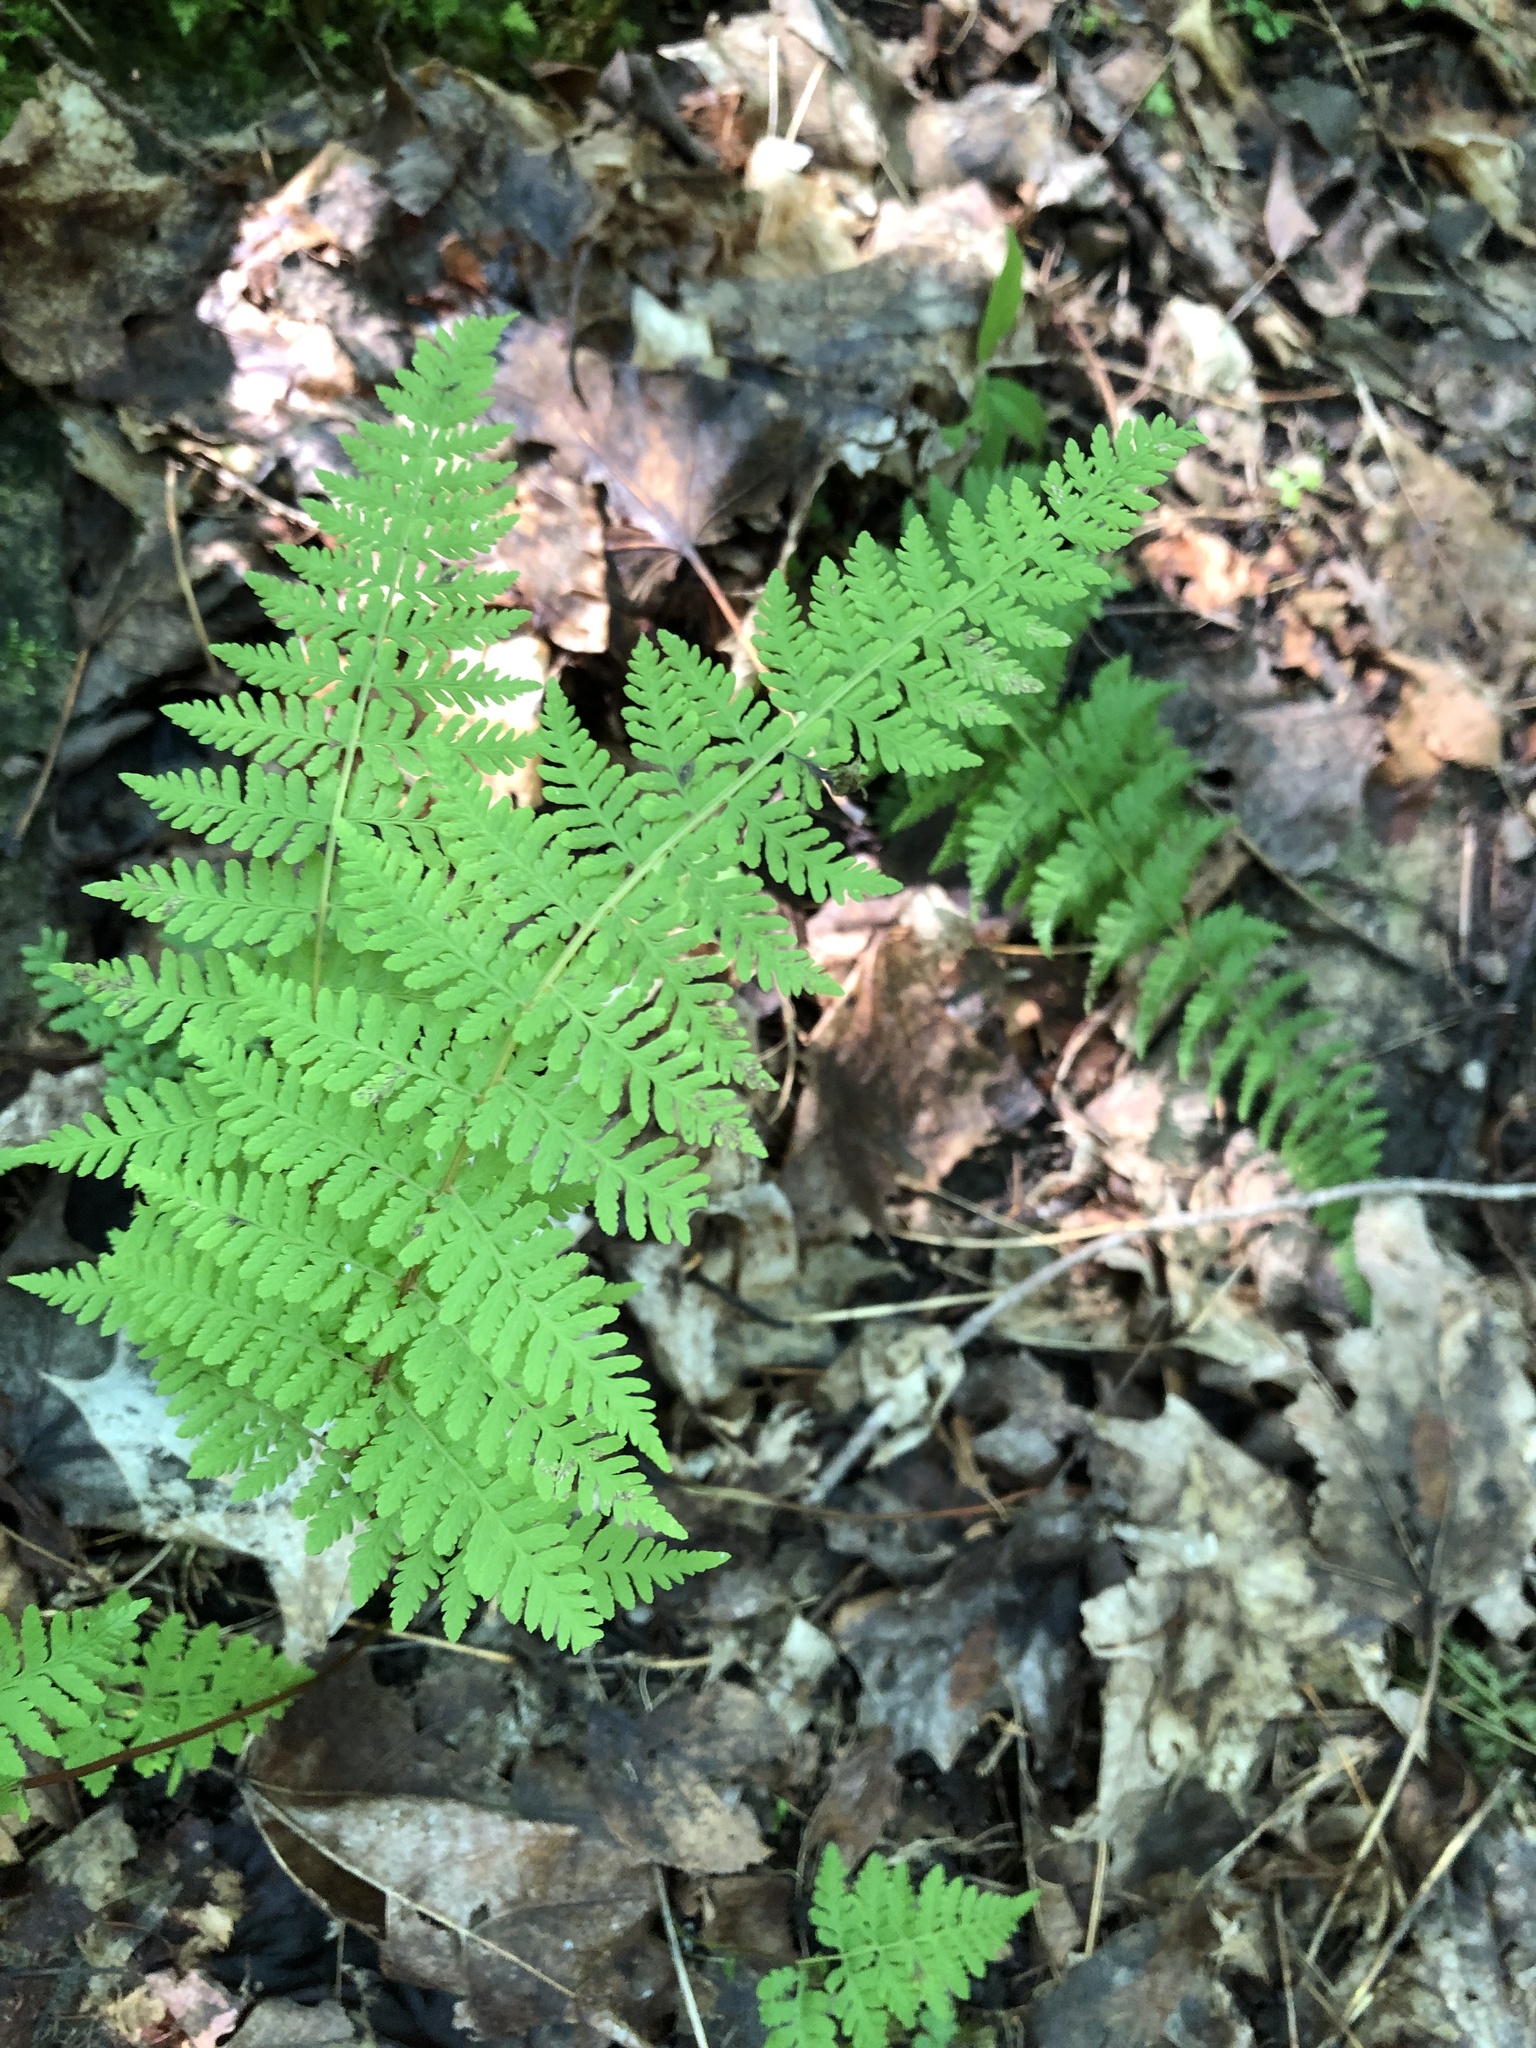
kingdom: Plantae
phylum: Tracheophyta
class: Polypodiopsida
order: Polypodiales
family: Cystopteridaceae
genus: Cystopteris
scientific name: Cystopteris bulbifera
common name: Bulblet bladder fern
